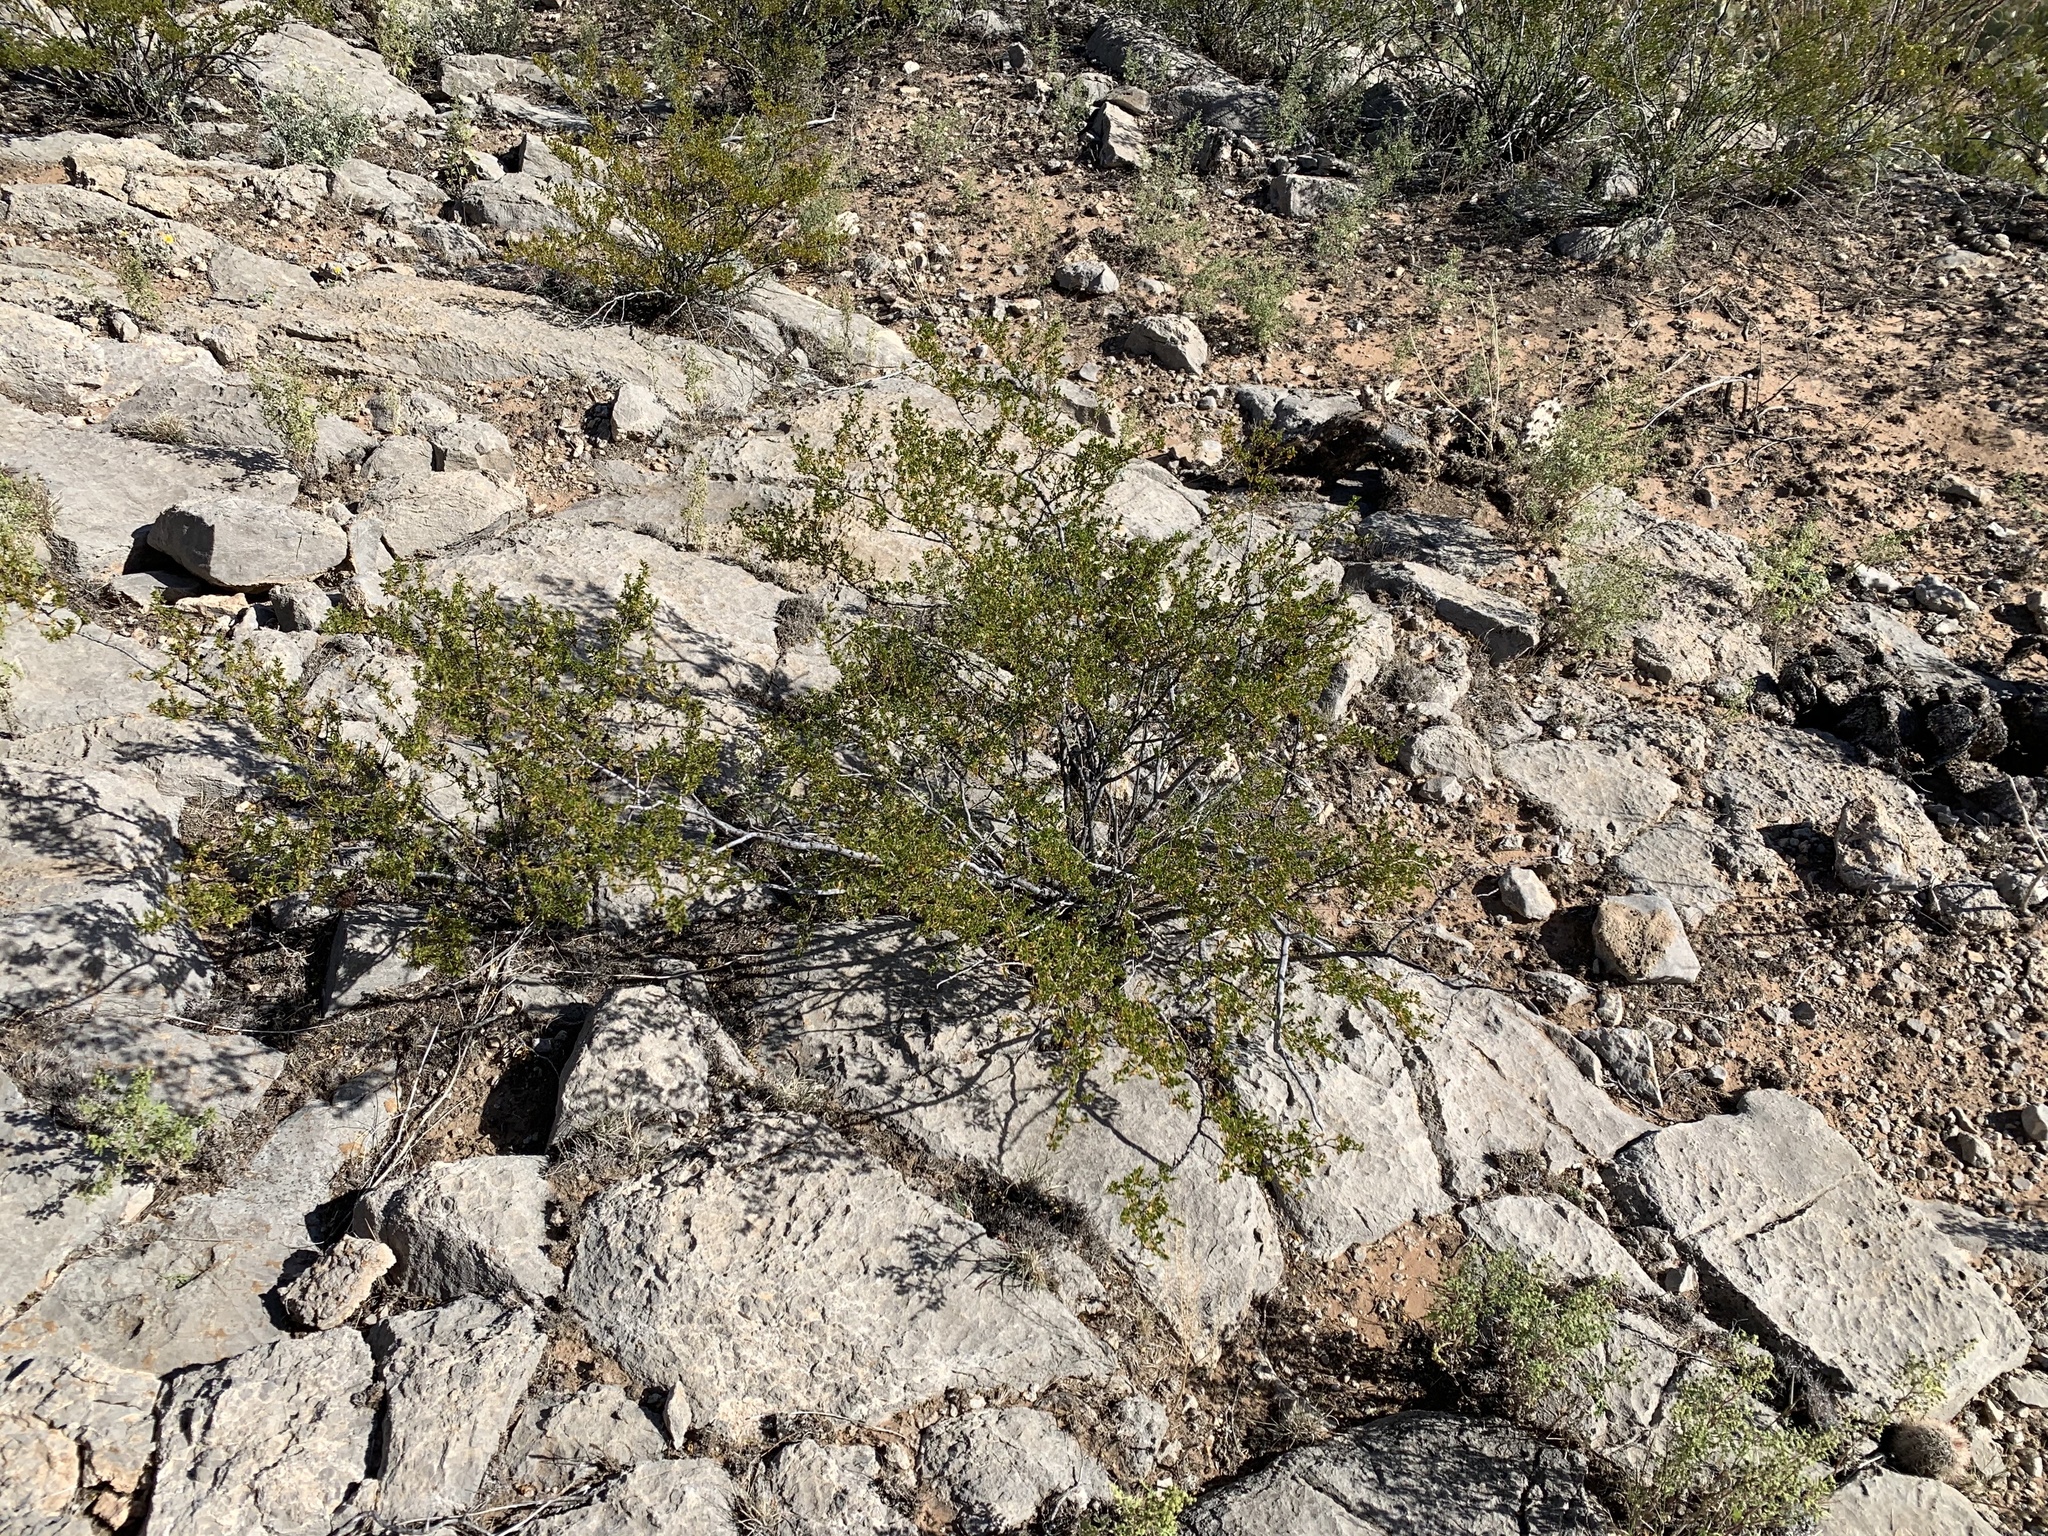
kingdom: Plantae
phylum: Tracheophyta
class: Magnoliopsida
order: Zygophyllales
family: Zygophyllaceae
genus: Larrea
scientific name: Larrea tridentata
